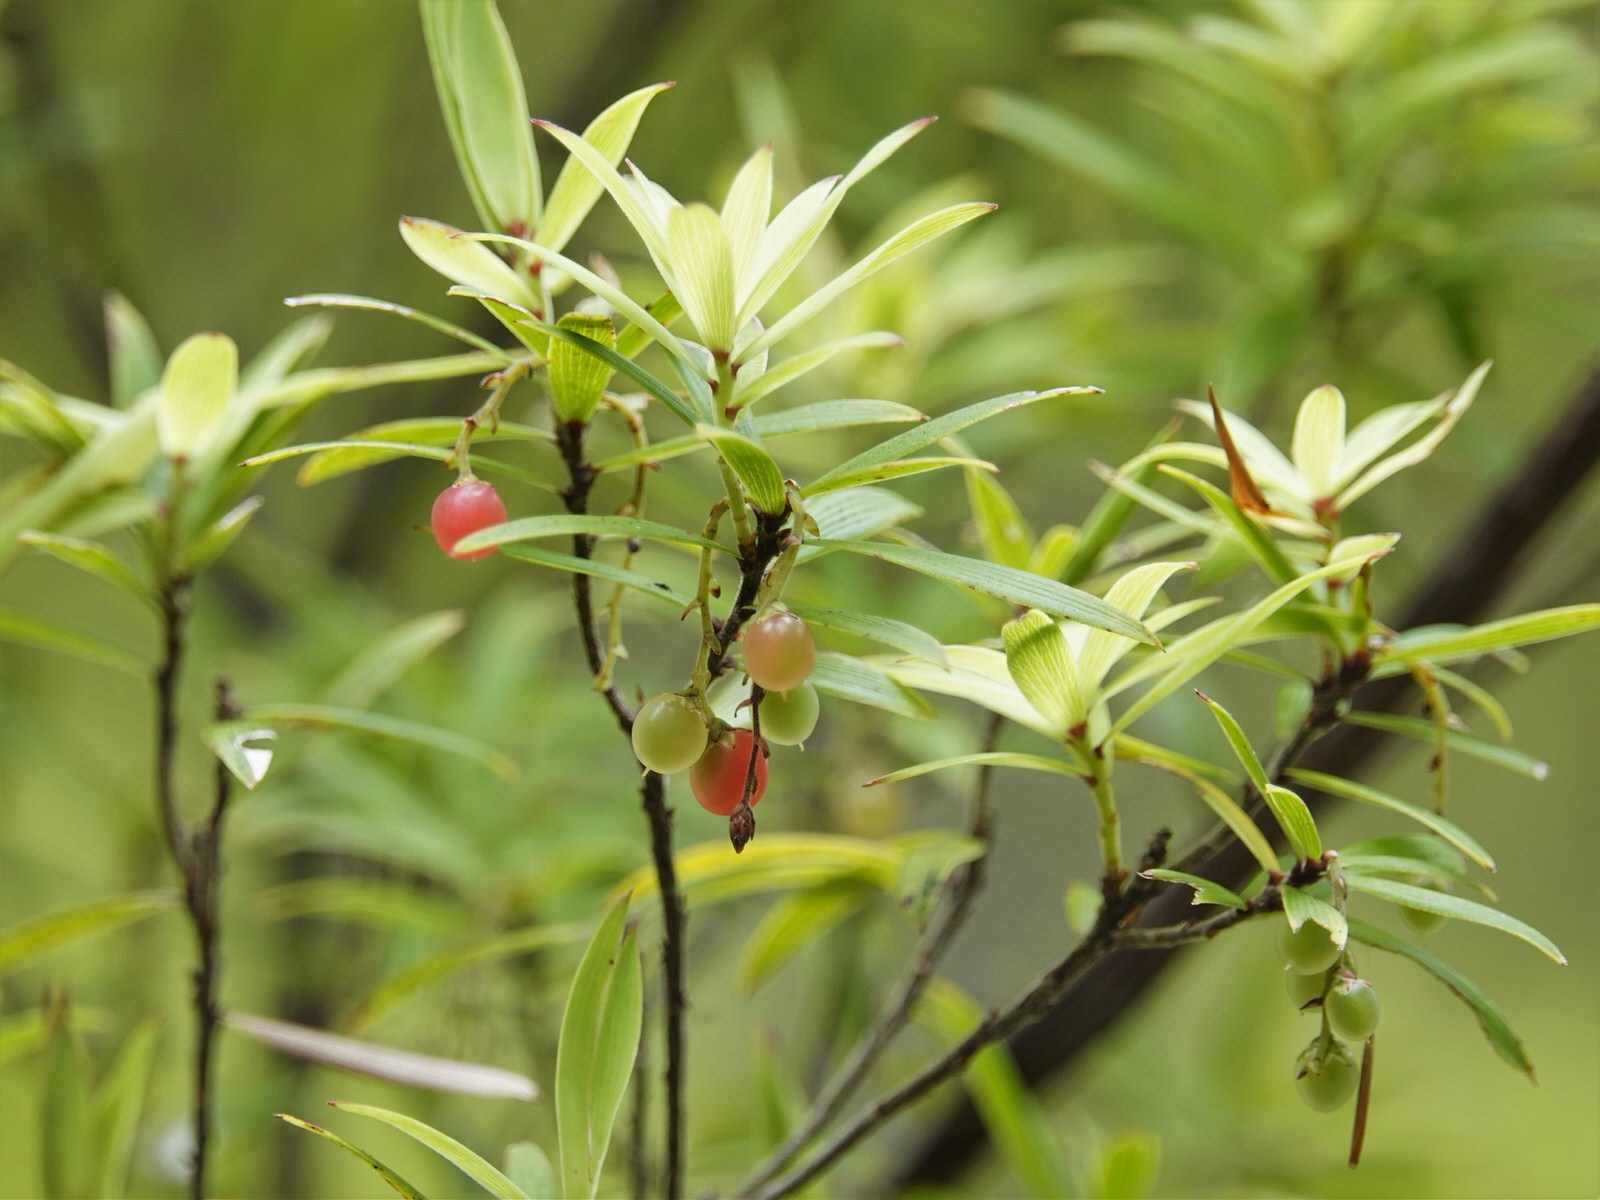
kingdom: Plantae
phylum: Tracheophyta
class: Magnoliopsida
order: Ericales
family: Ericaceae
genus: Leucopogon
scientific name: Leucopogon fasciculatus
